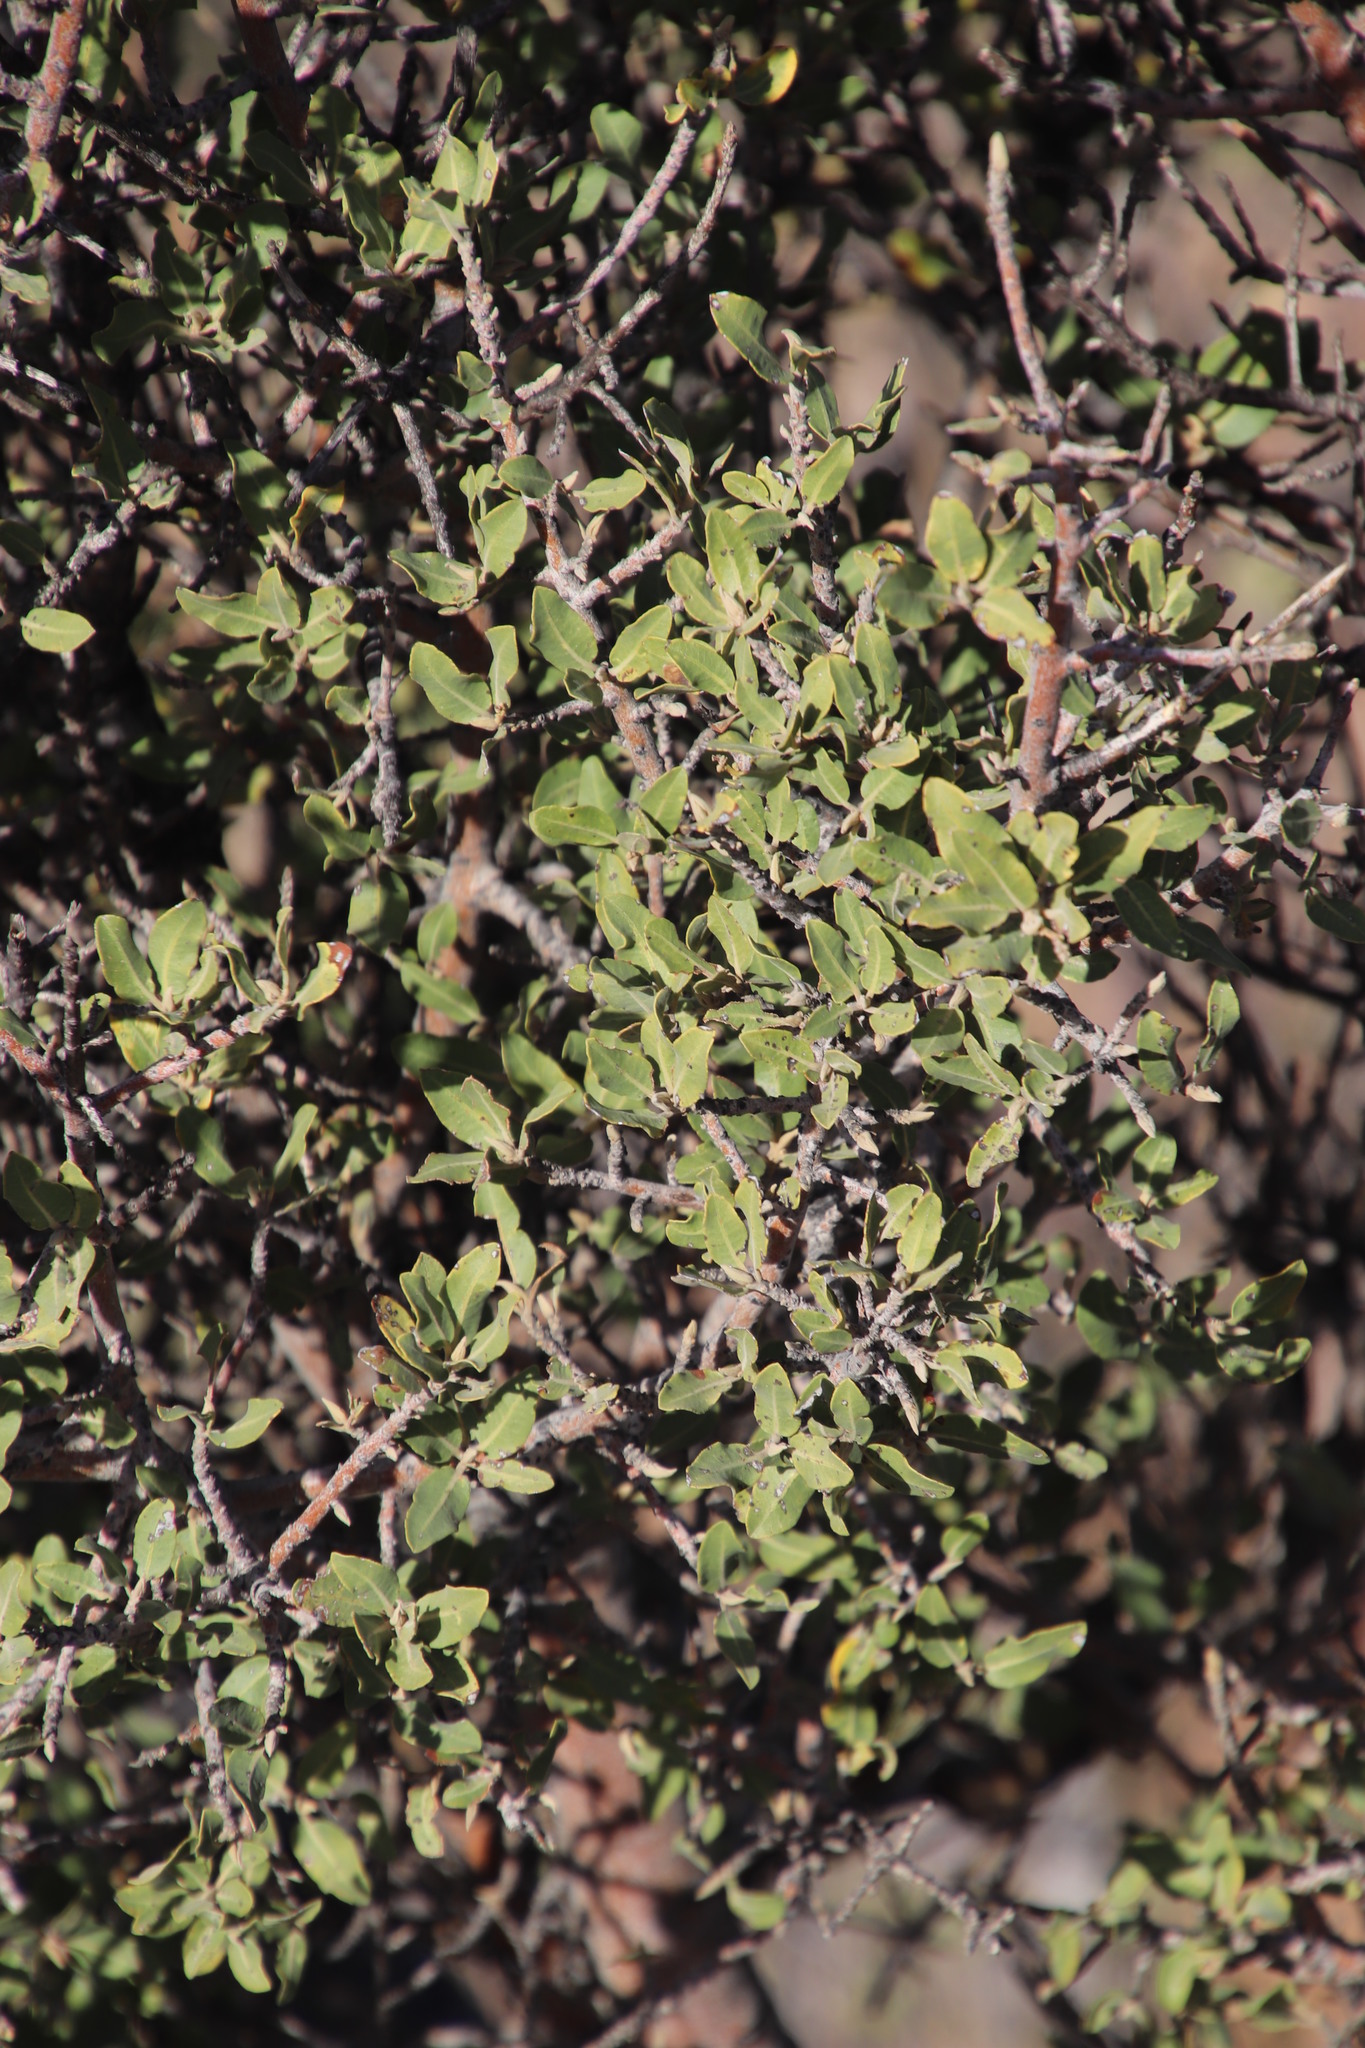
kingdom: Plantae
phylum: Tracheophyta
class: Magnoliopsida
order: Brassicales
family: Capparaceae
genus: Boscia
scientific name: Boscia albitrunca
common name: Caper bush
